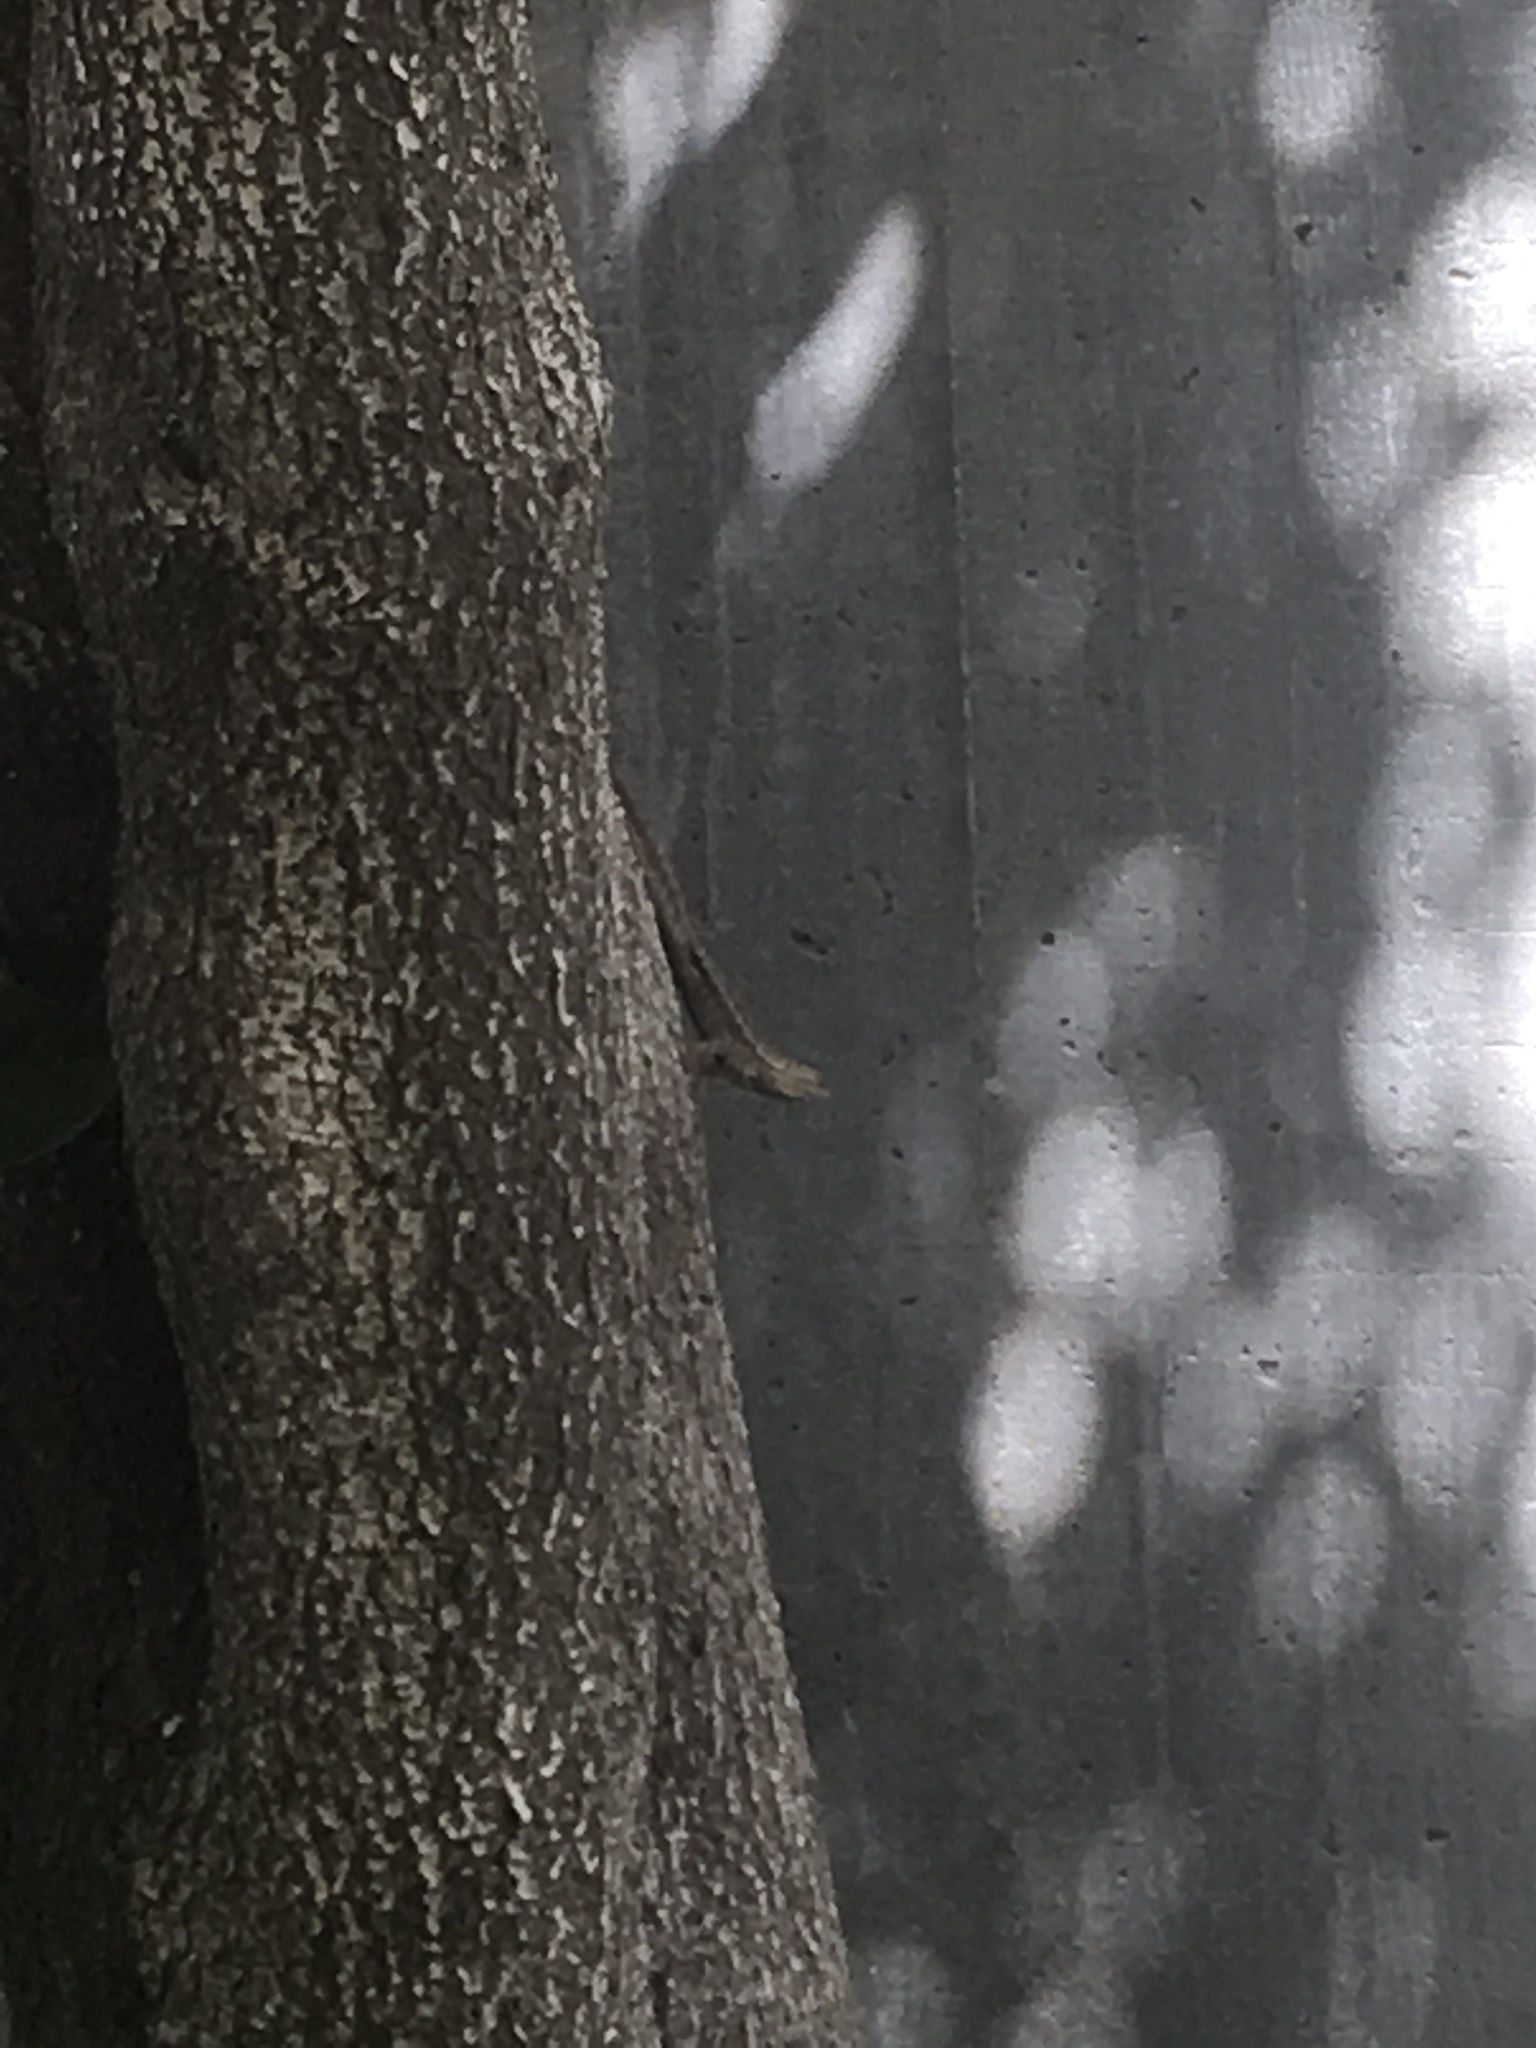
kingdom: Animalia
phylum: Chordata
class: Squamata
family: Phrynosomatidae
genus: Sceloporus
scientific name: Sceloporus occidentalis
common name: Western fence lizard
